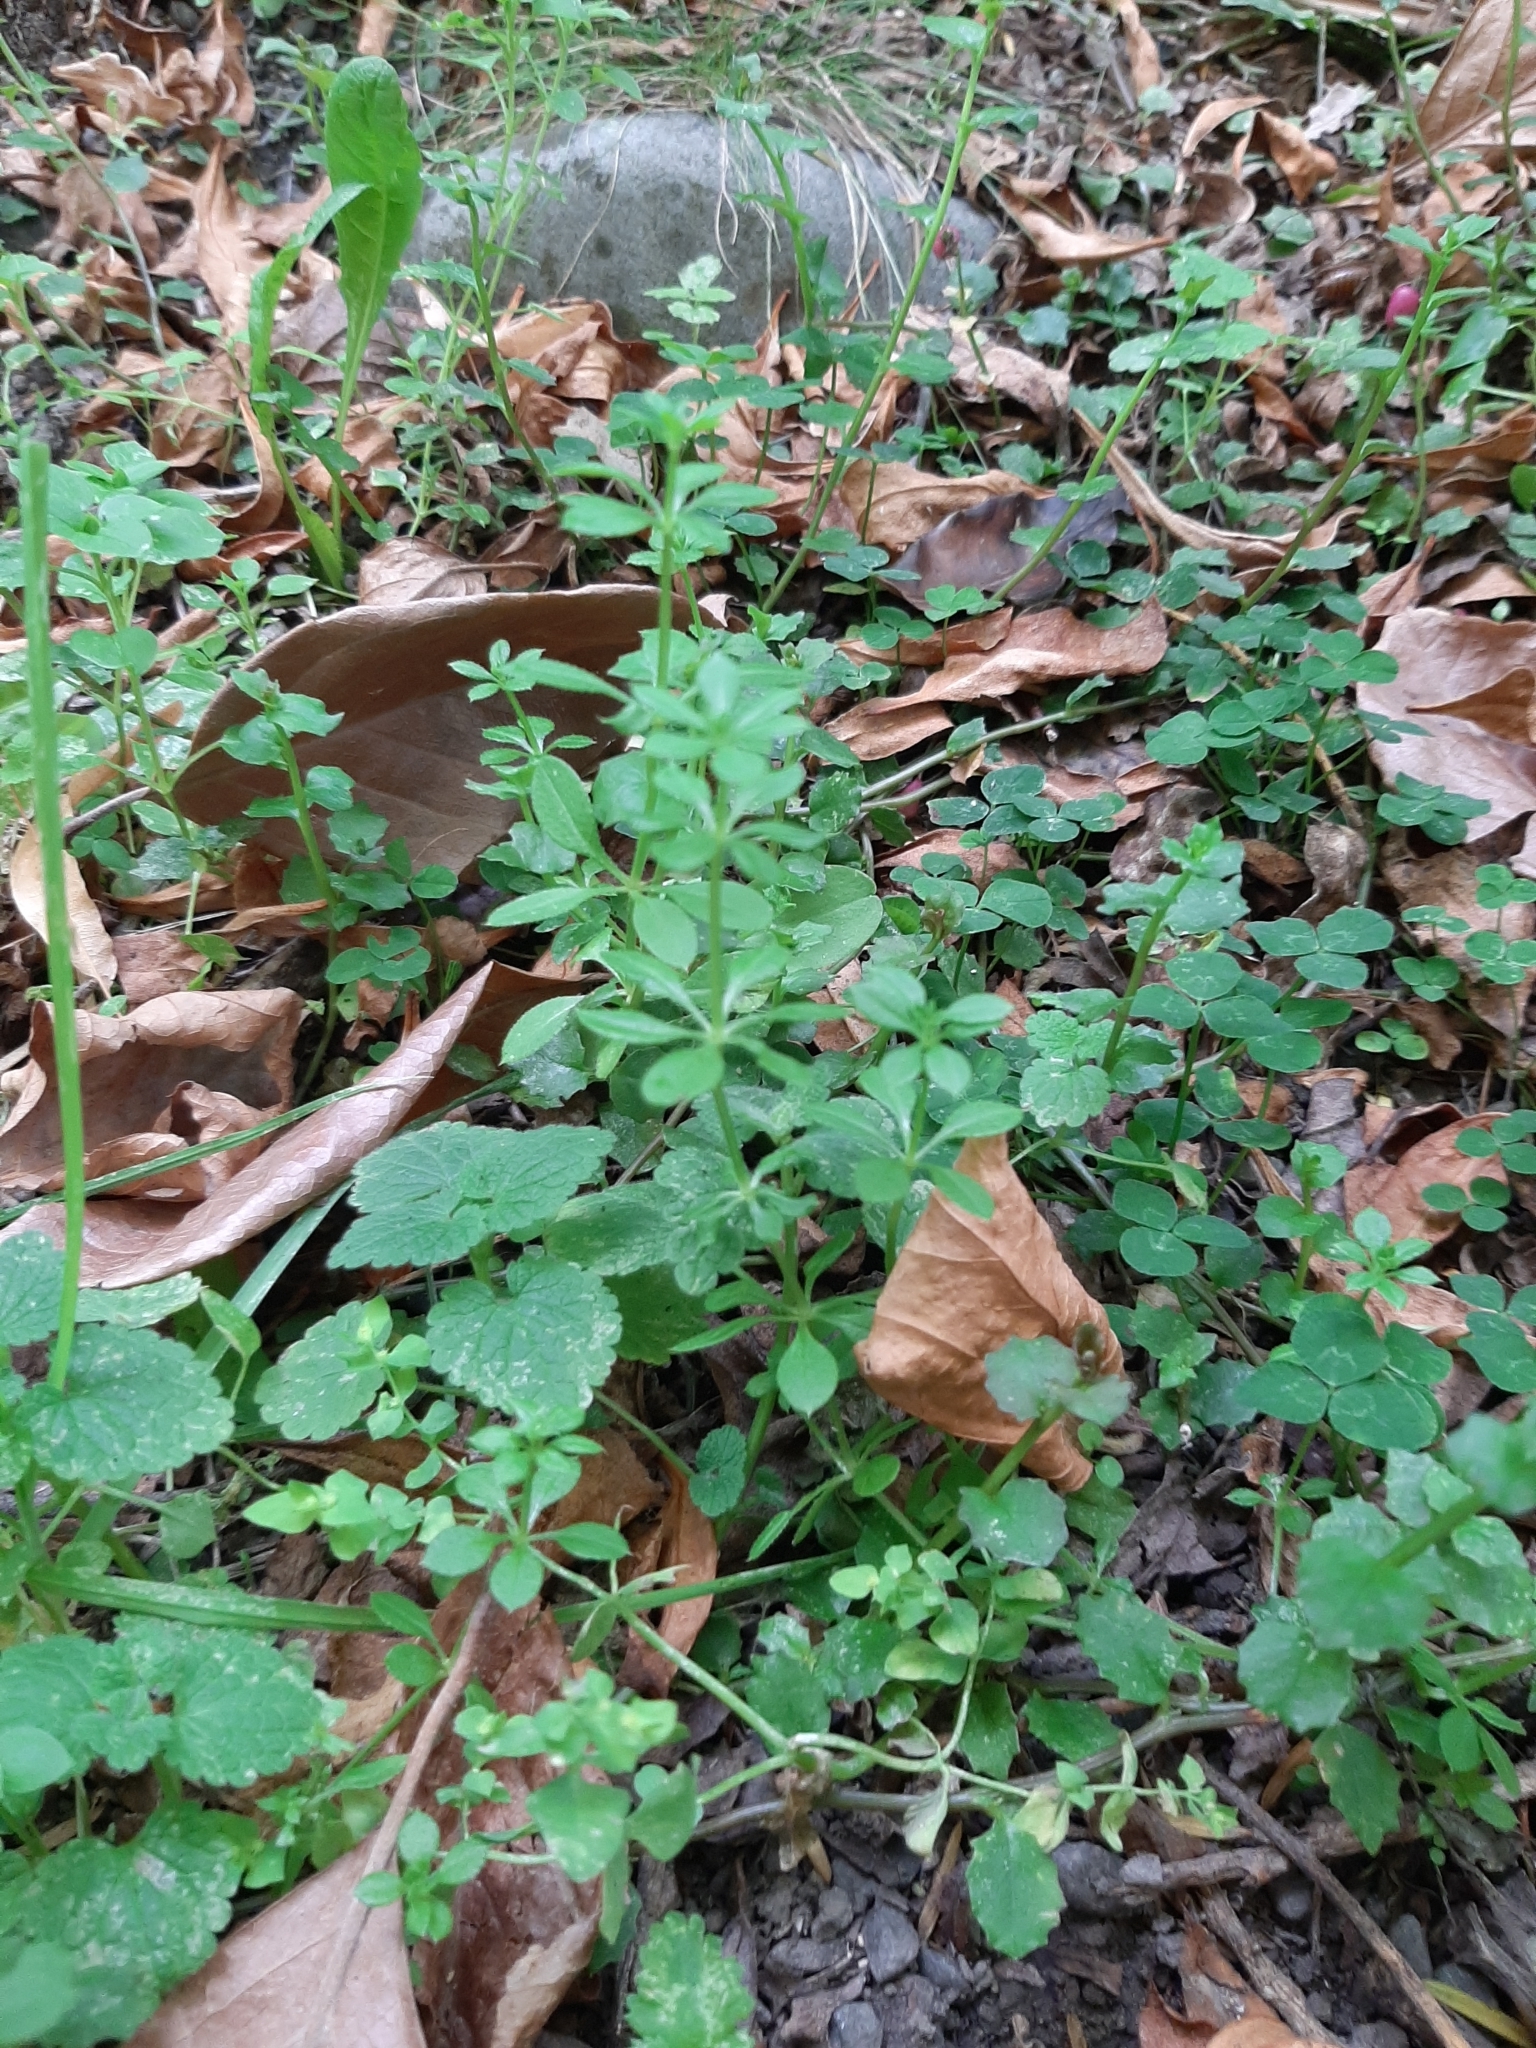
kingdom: Plantae
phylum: Tracheophyta
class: Magnoliopsida
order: Gentianales
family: Rubiaceae
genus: Galium
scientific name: Galium aparine
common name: Cleavers
